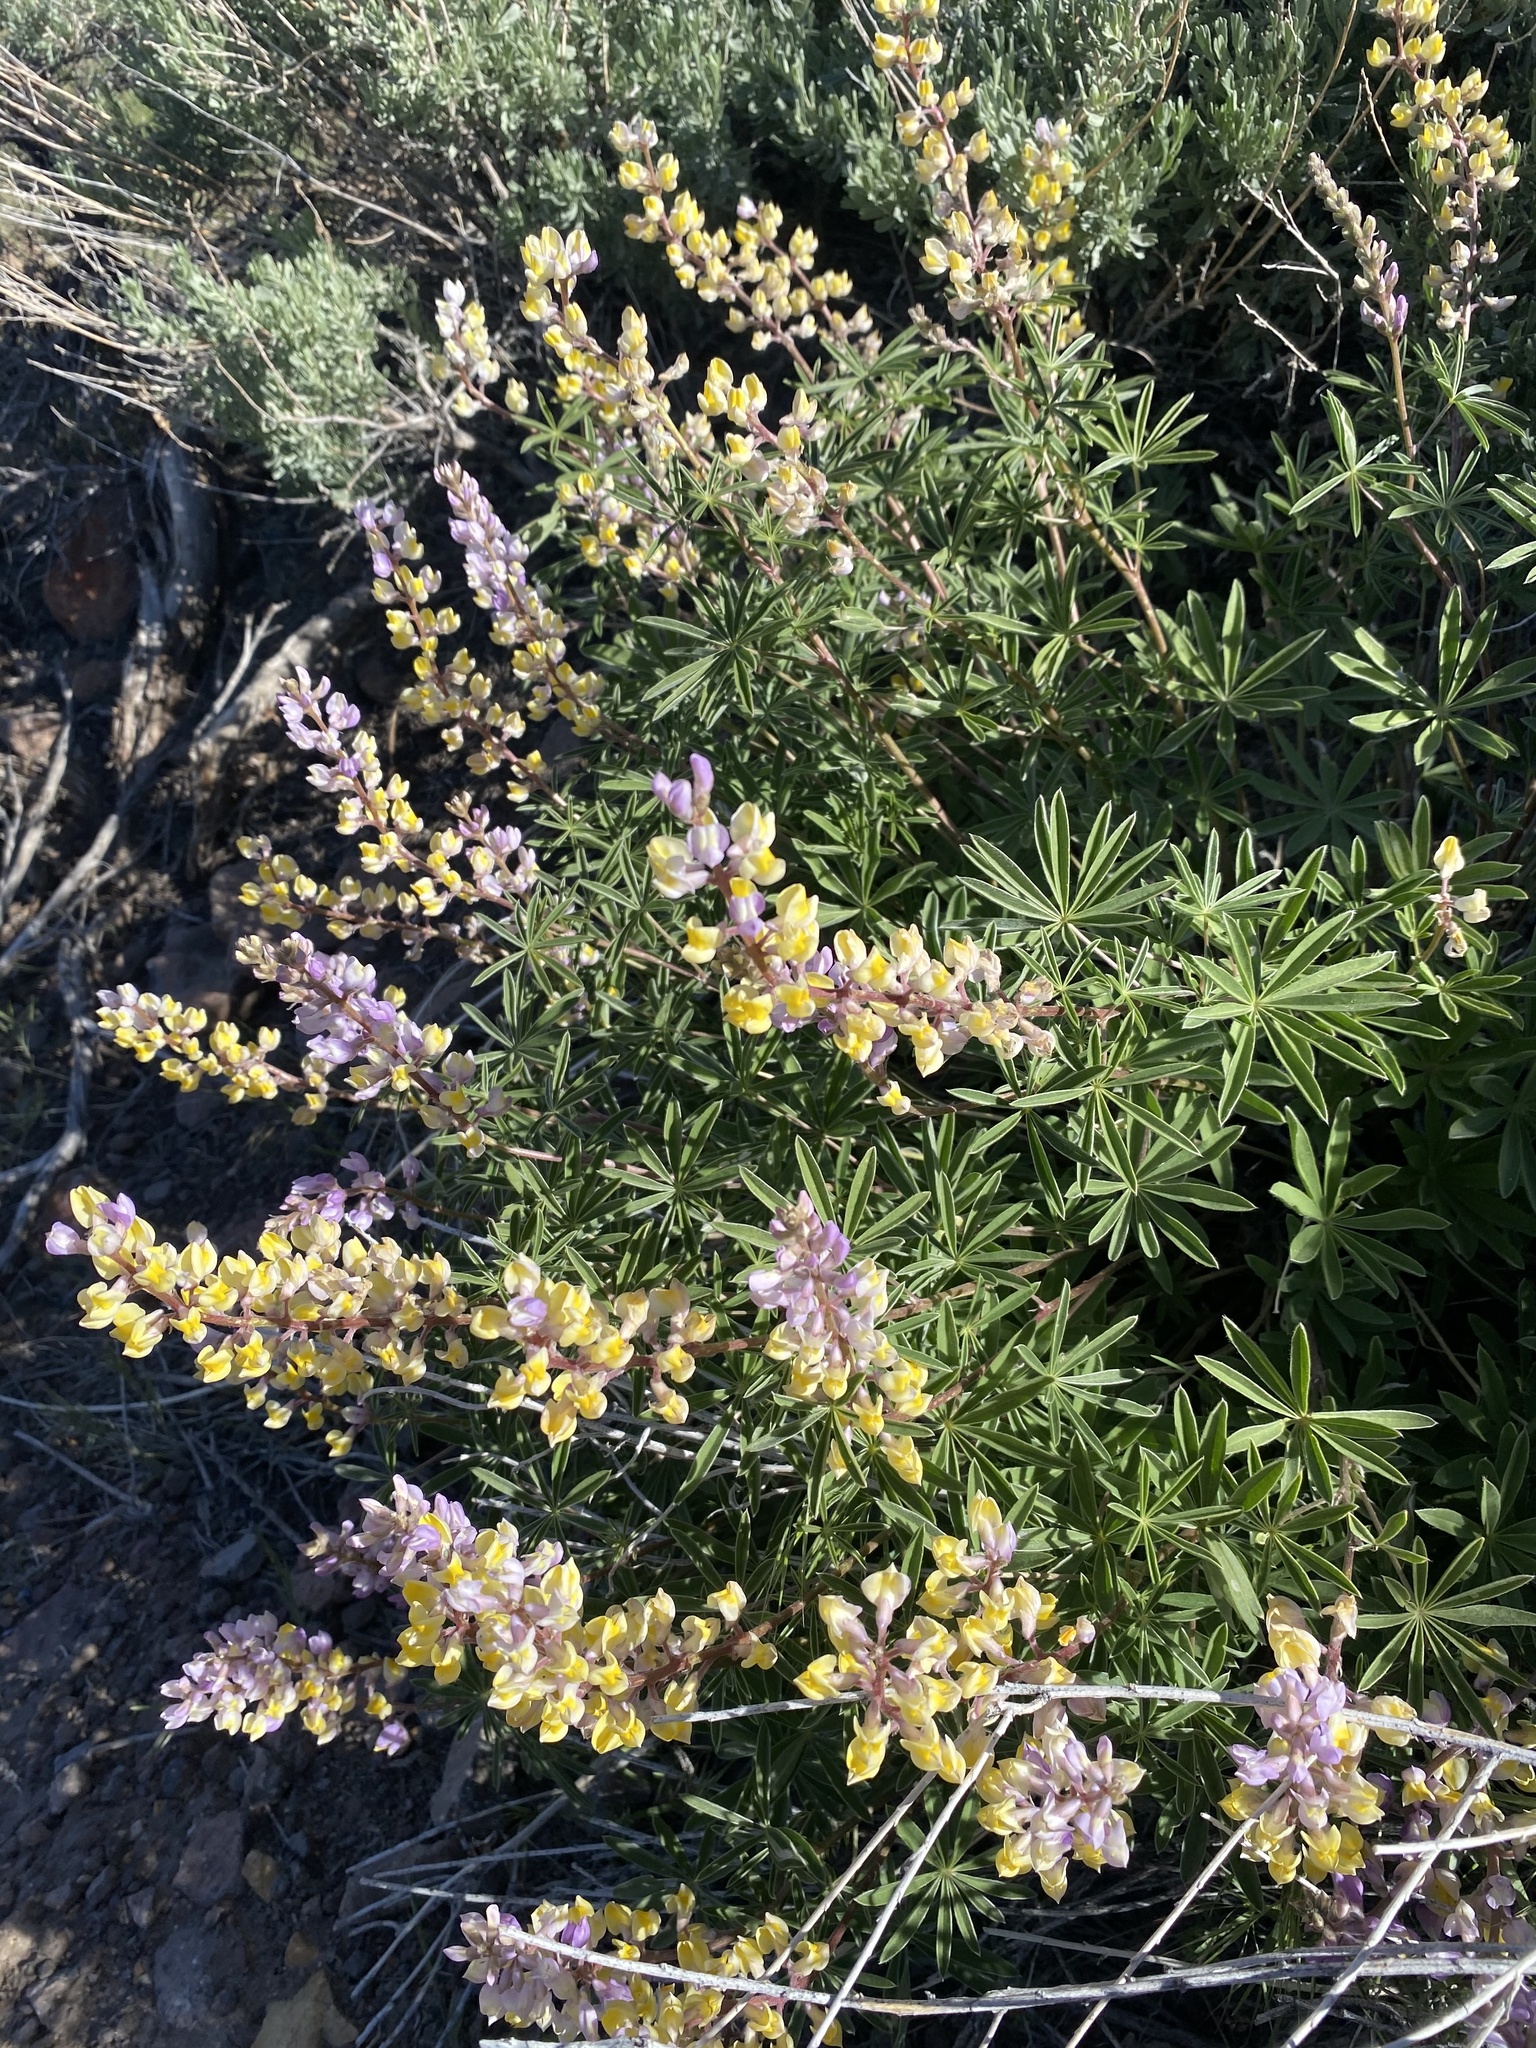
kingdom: Plantae
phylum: Tracheophyta
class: Magnoliopsida
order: Fabales
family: Fabaceae
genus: Lupinus
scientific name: Lupinus arbustus
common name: Montana lupine
